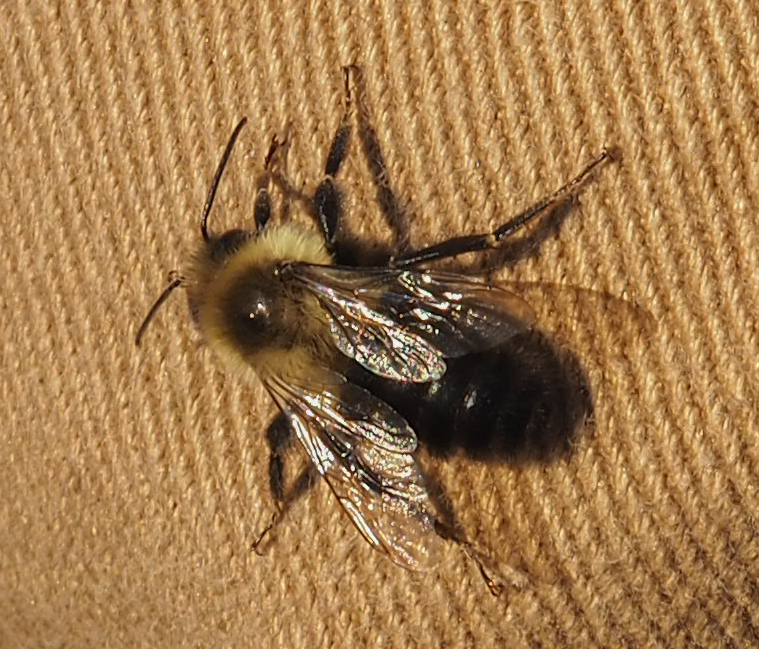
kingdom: Animalia
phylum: Arthropoda
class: Insecta
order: Hymenoptera
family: Apidae
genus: Bombus
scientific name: Bombus impatiens
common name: Common eastern bumble bee
